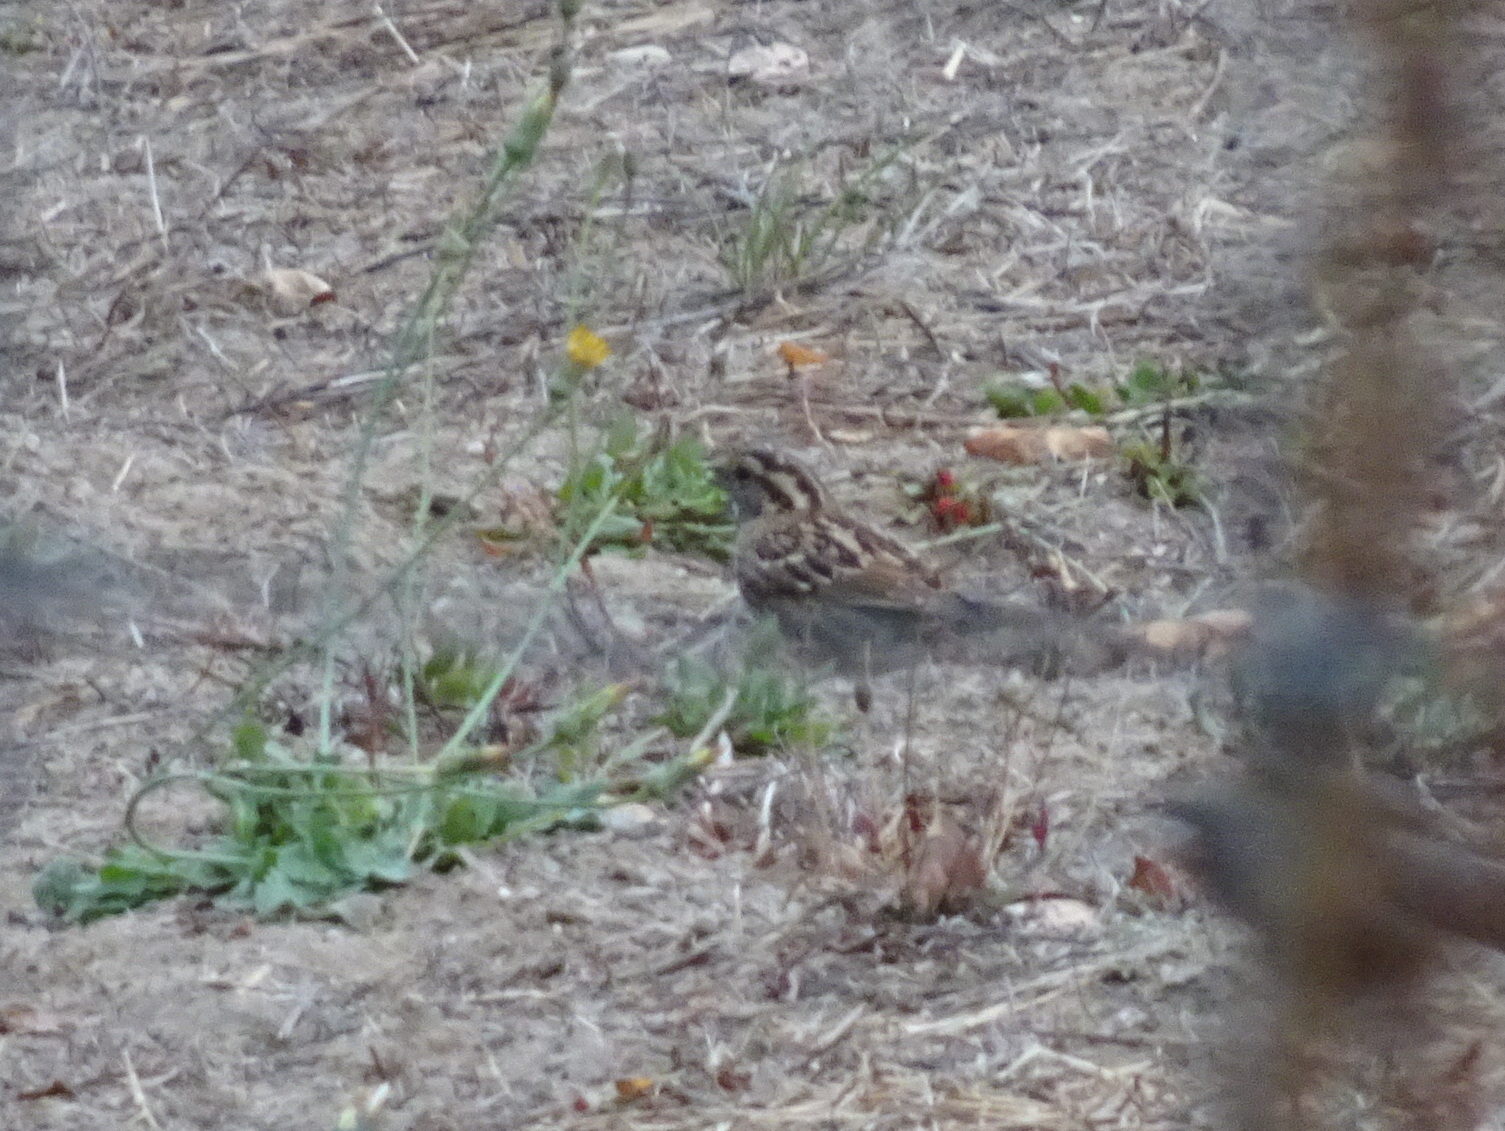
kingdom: Animalia
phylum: Chordata
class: Aves
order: Passeriformes
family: Passerellidae
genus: Zonotrichia
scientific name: Zonotrichia albicollis
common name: White-throated sparrow
